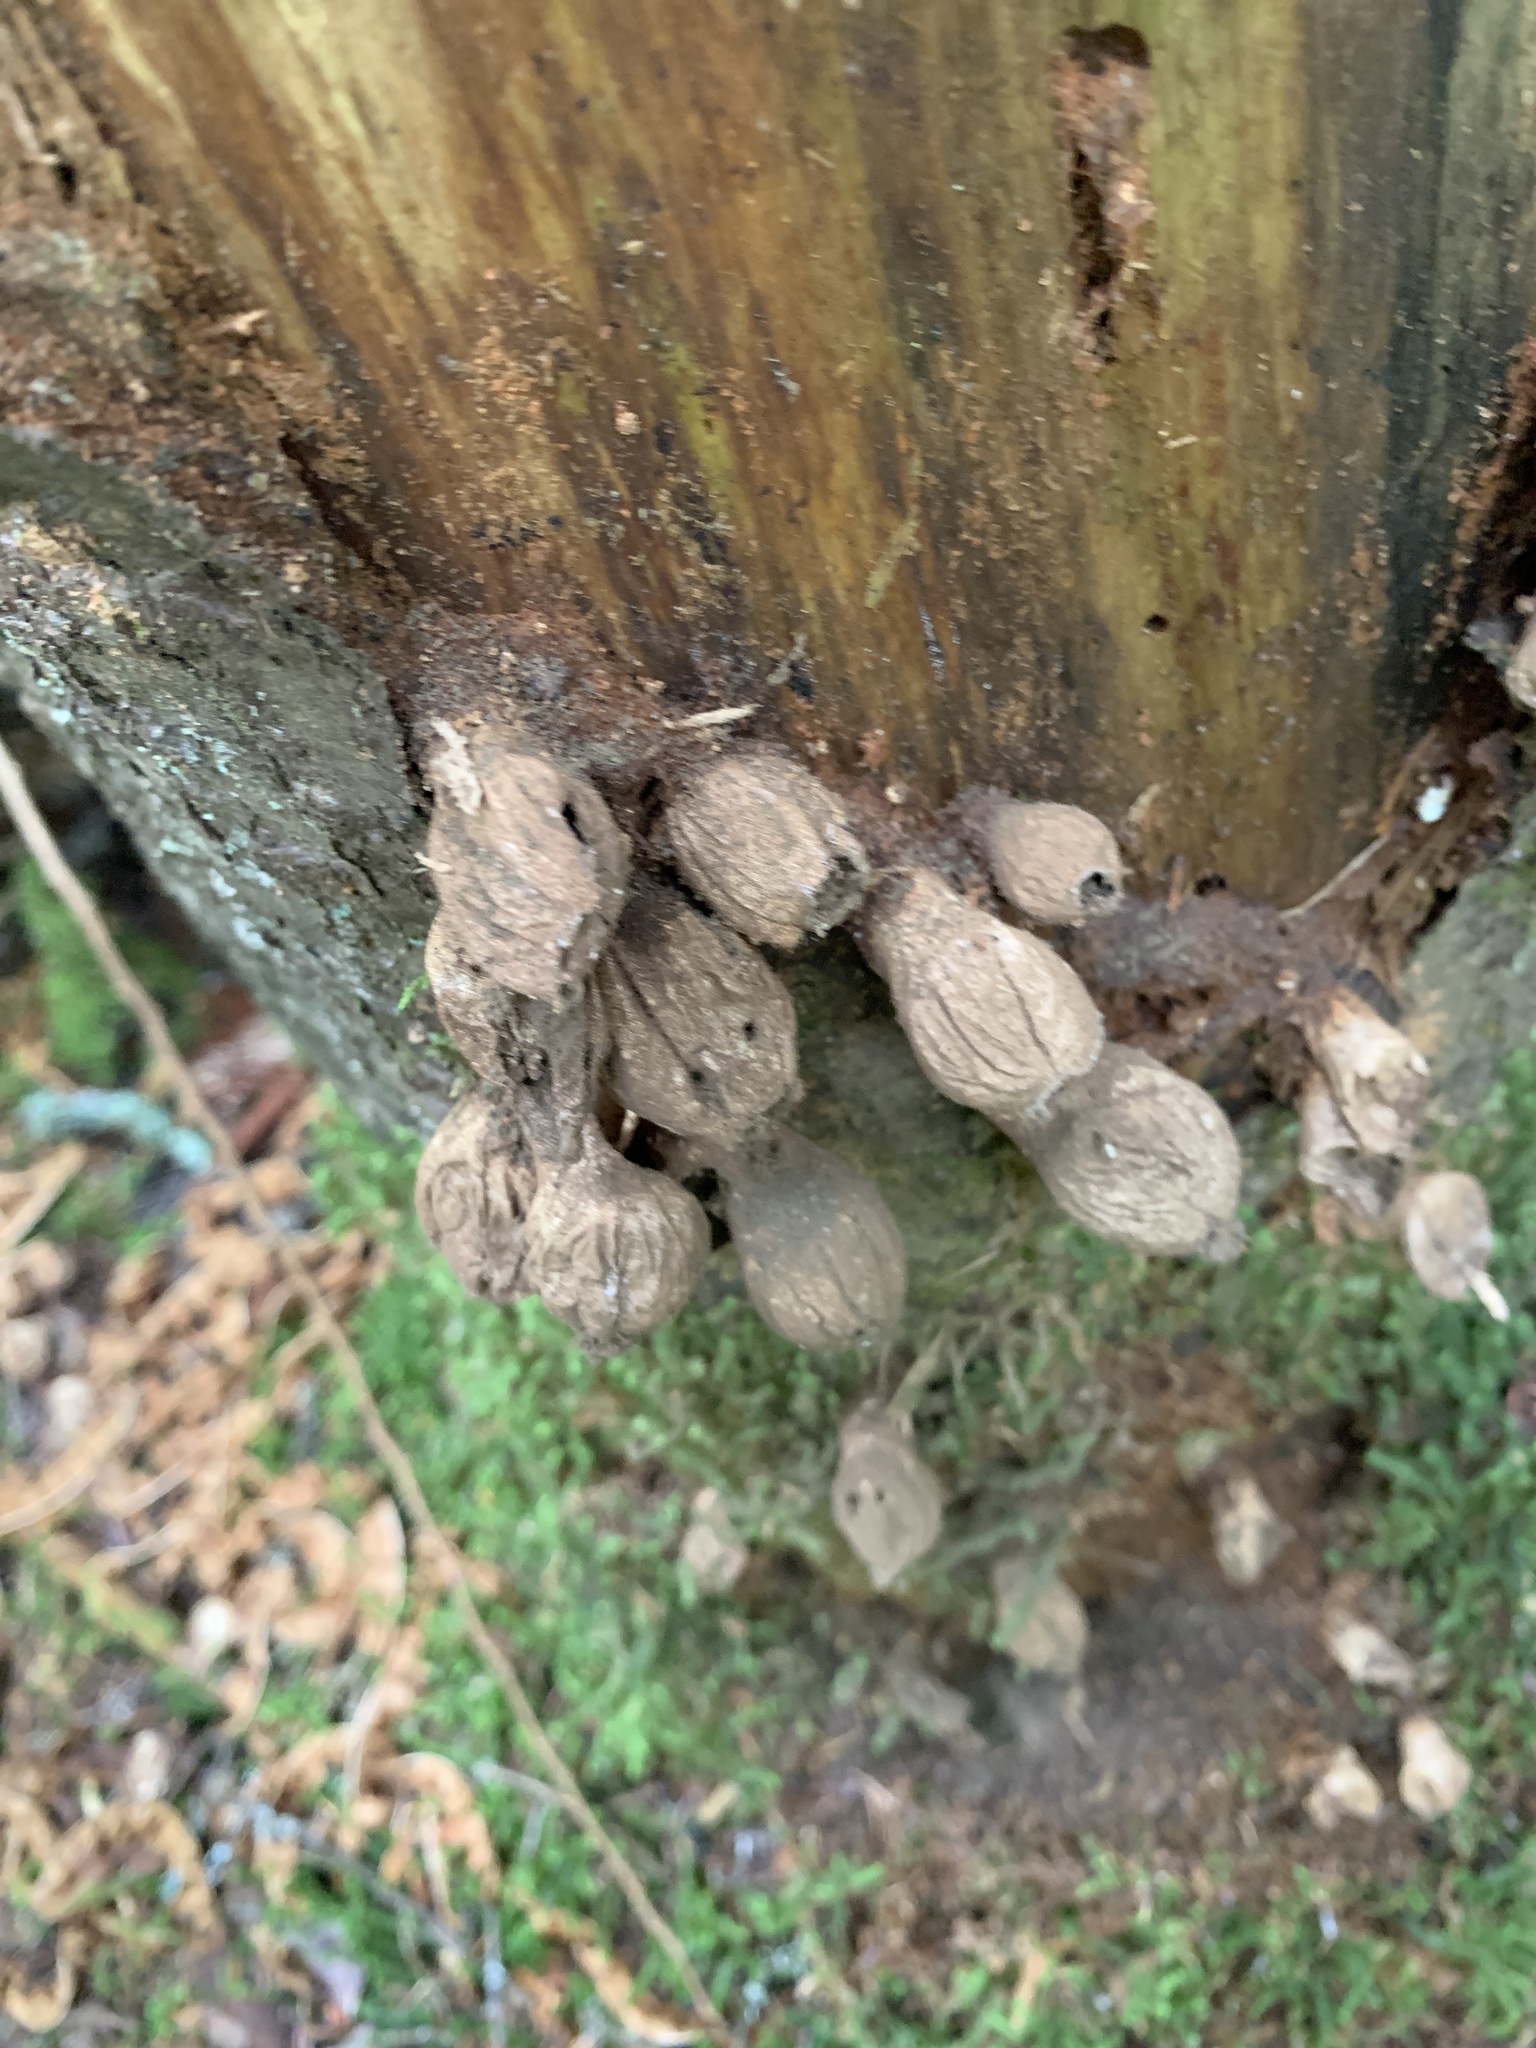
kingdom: Fungi
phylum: Basidiomycota
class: Agaricomycetes
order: Agaricales
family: Lycoperdaceae
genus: Apioperdon
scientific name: Apioperdon pyriforme
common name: Pear-shaped puffball
